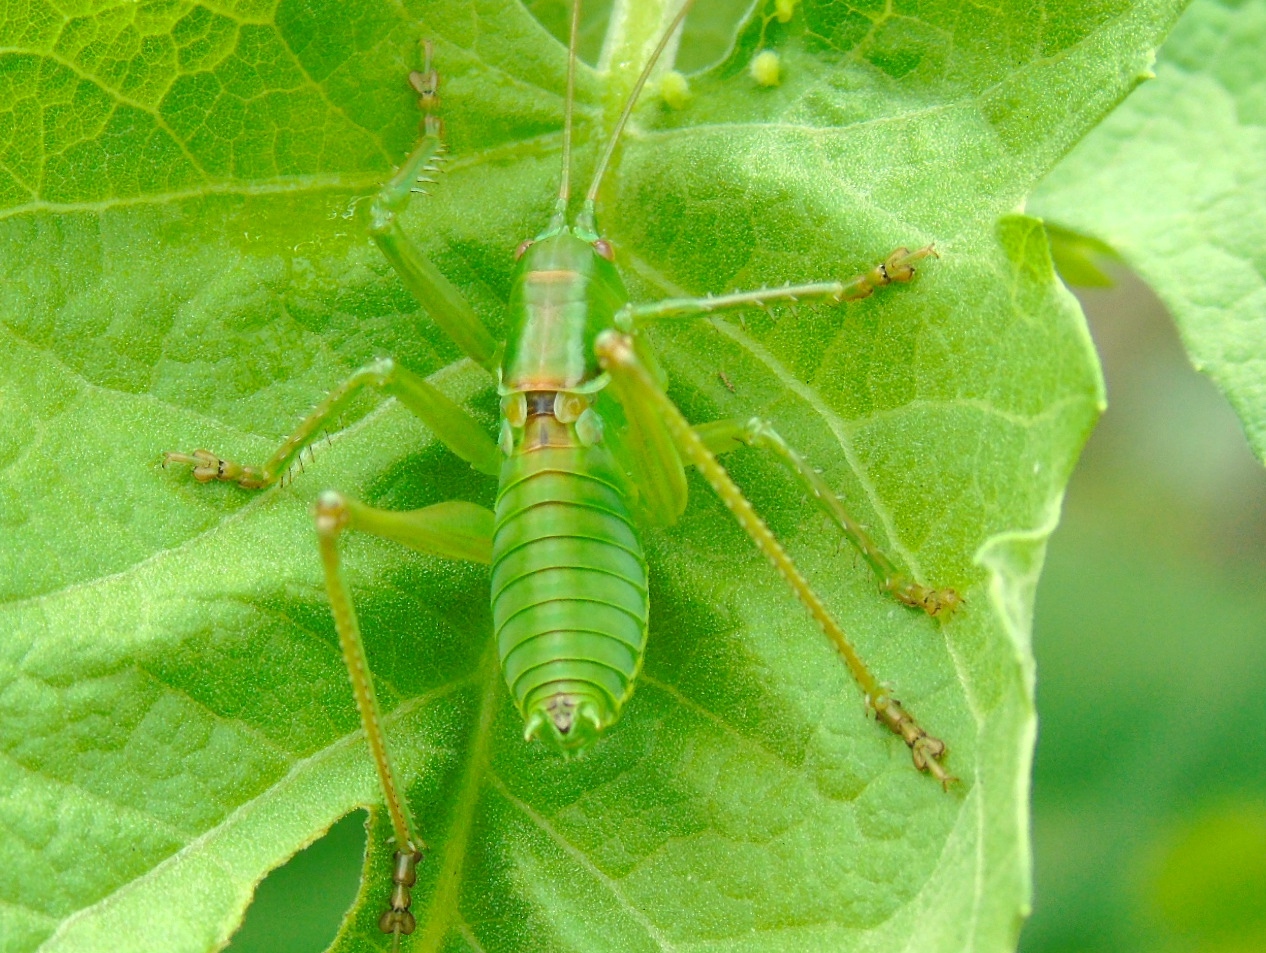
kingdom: Animalia
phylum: Arthropoda
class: Insecta
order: Orthoptera
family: Tettigoniidae
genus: Neobarrettia
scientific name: Neobarrettia sinaloae
